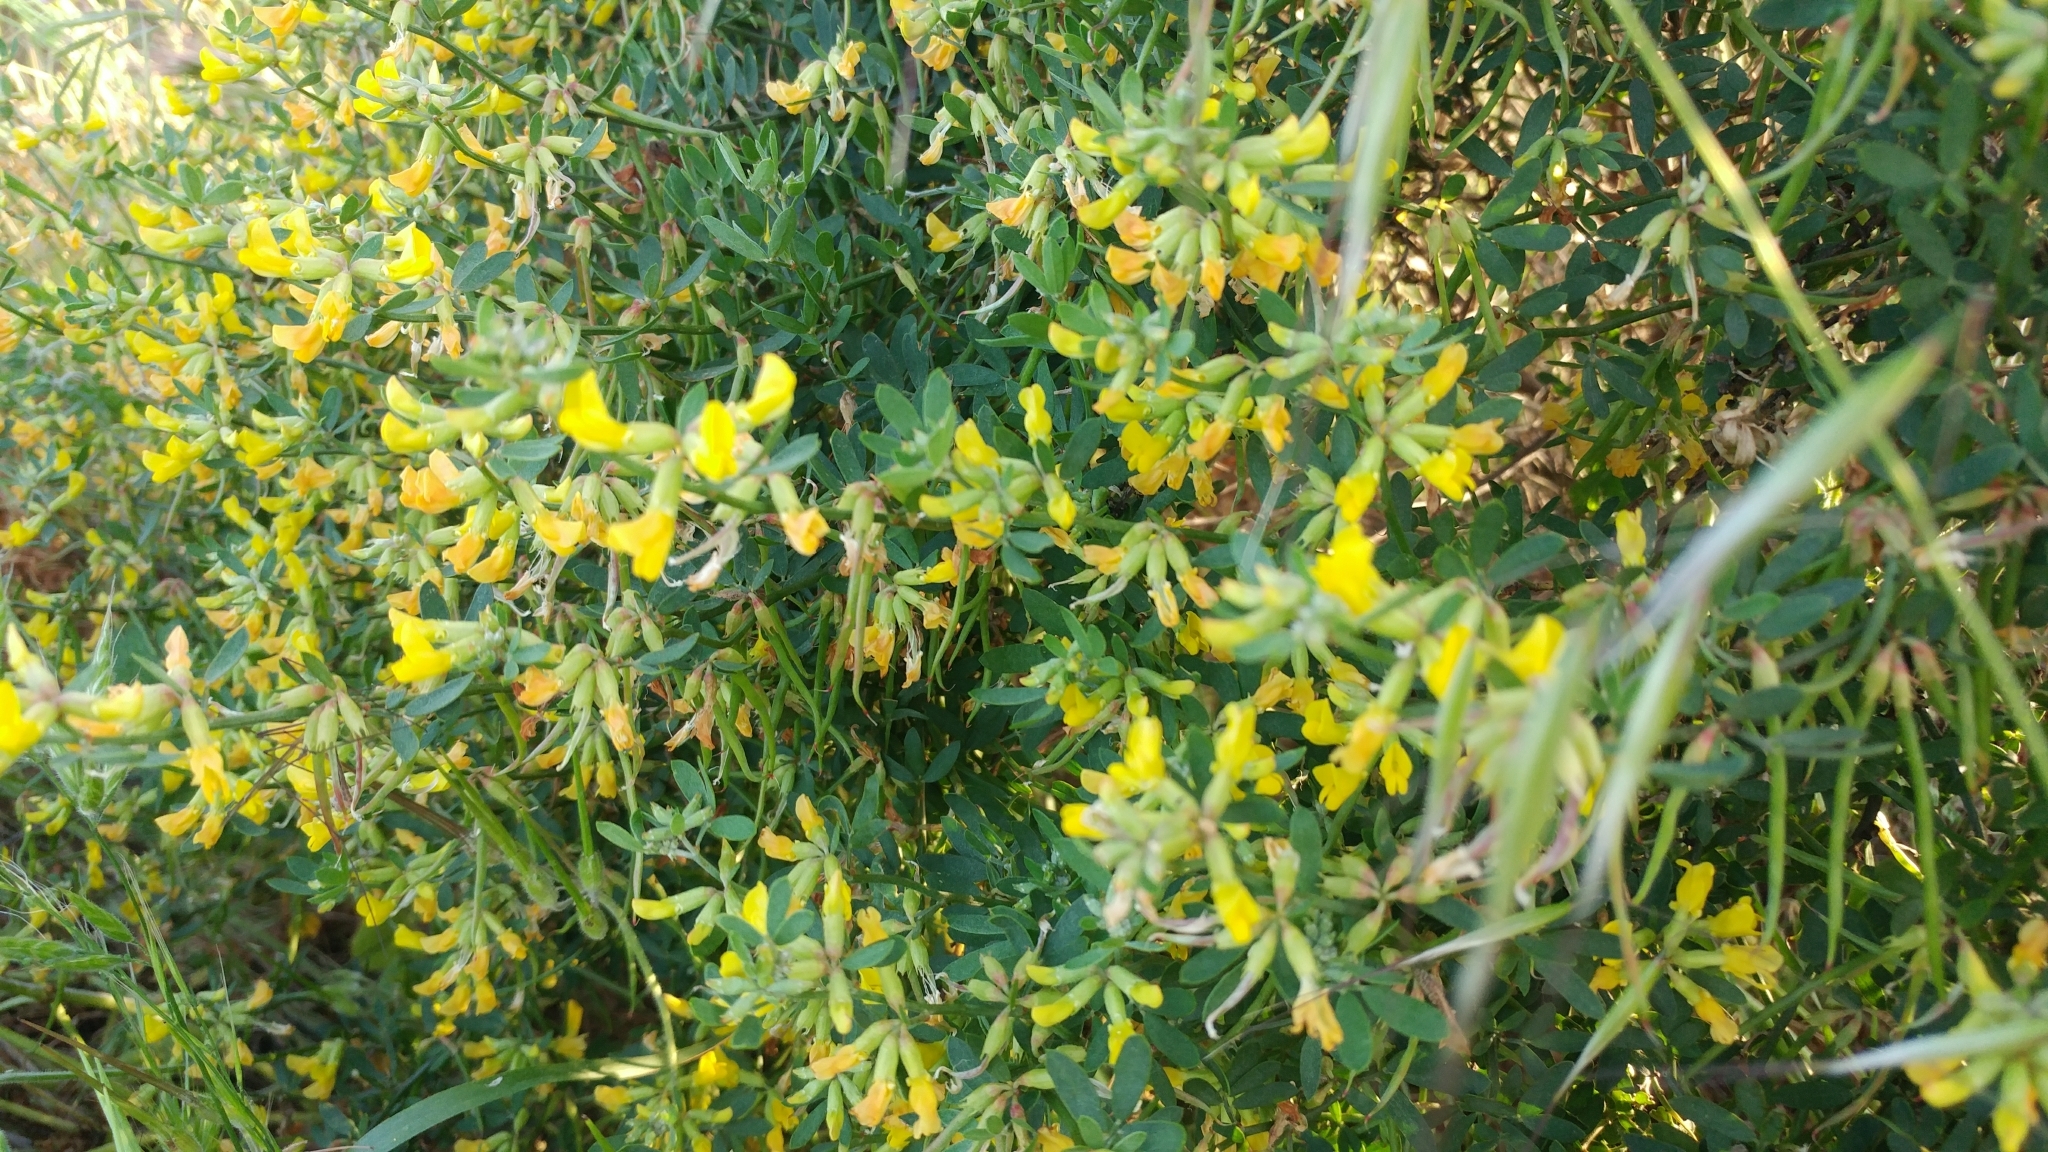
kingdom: Plantae
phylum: Tracheophyta
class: Magnoliopsida
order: Fabales
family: Fabaceae
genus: Acmispon
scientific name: Acmispon dendroideus
